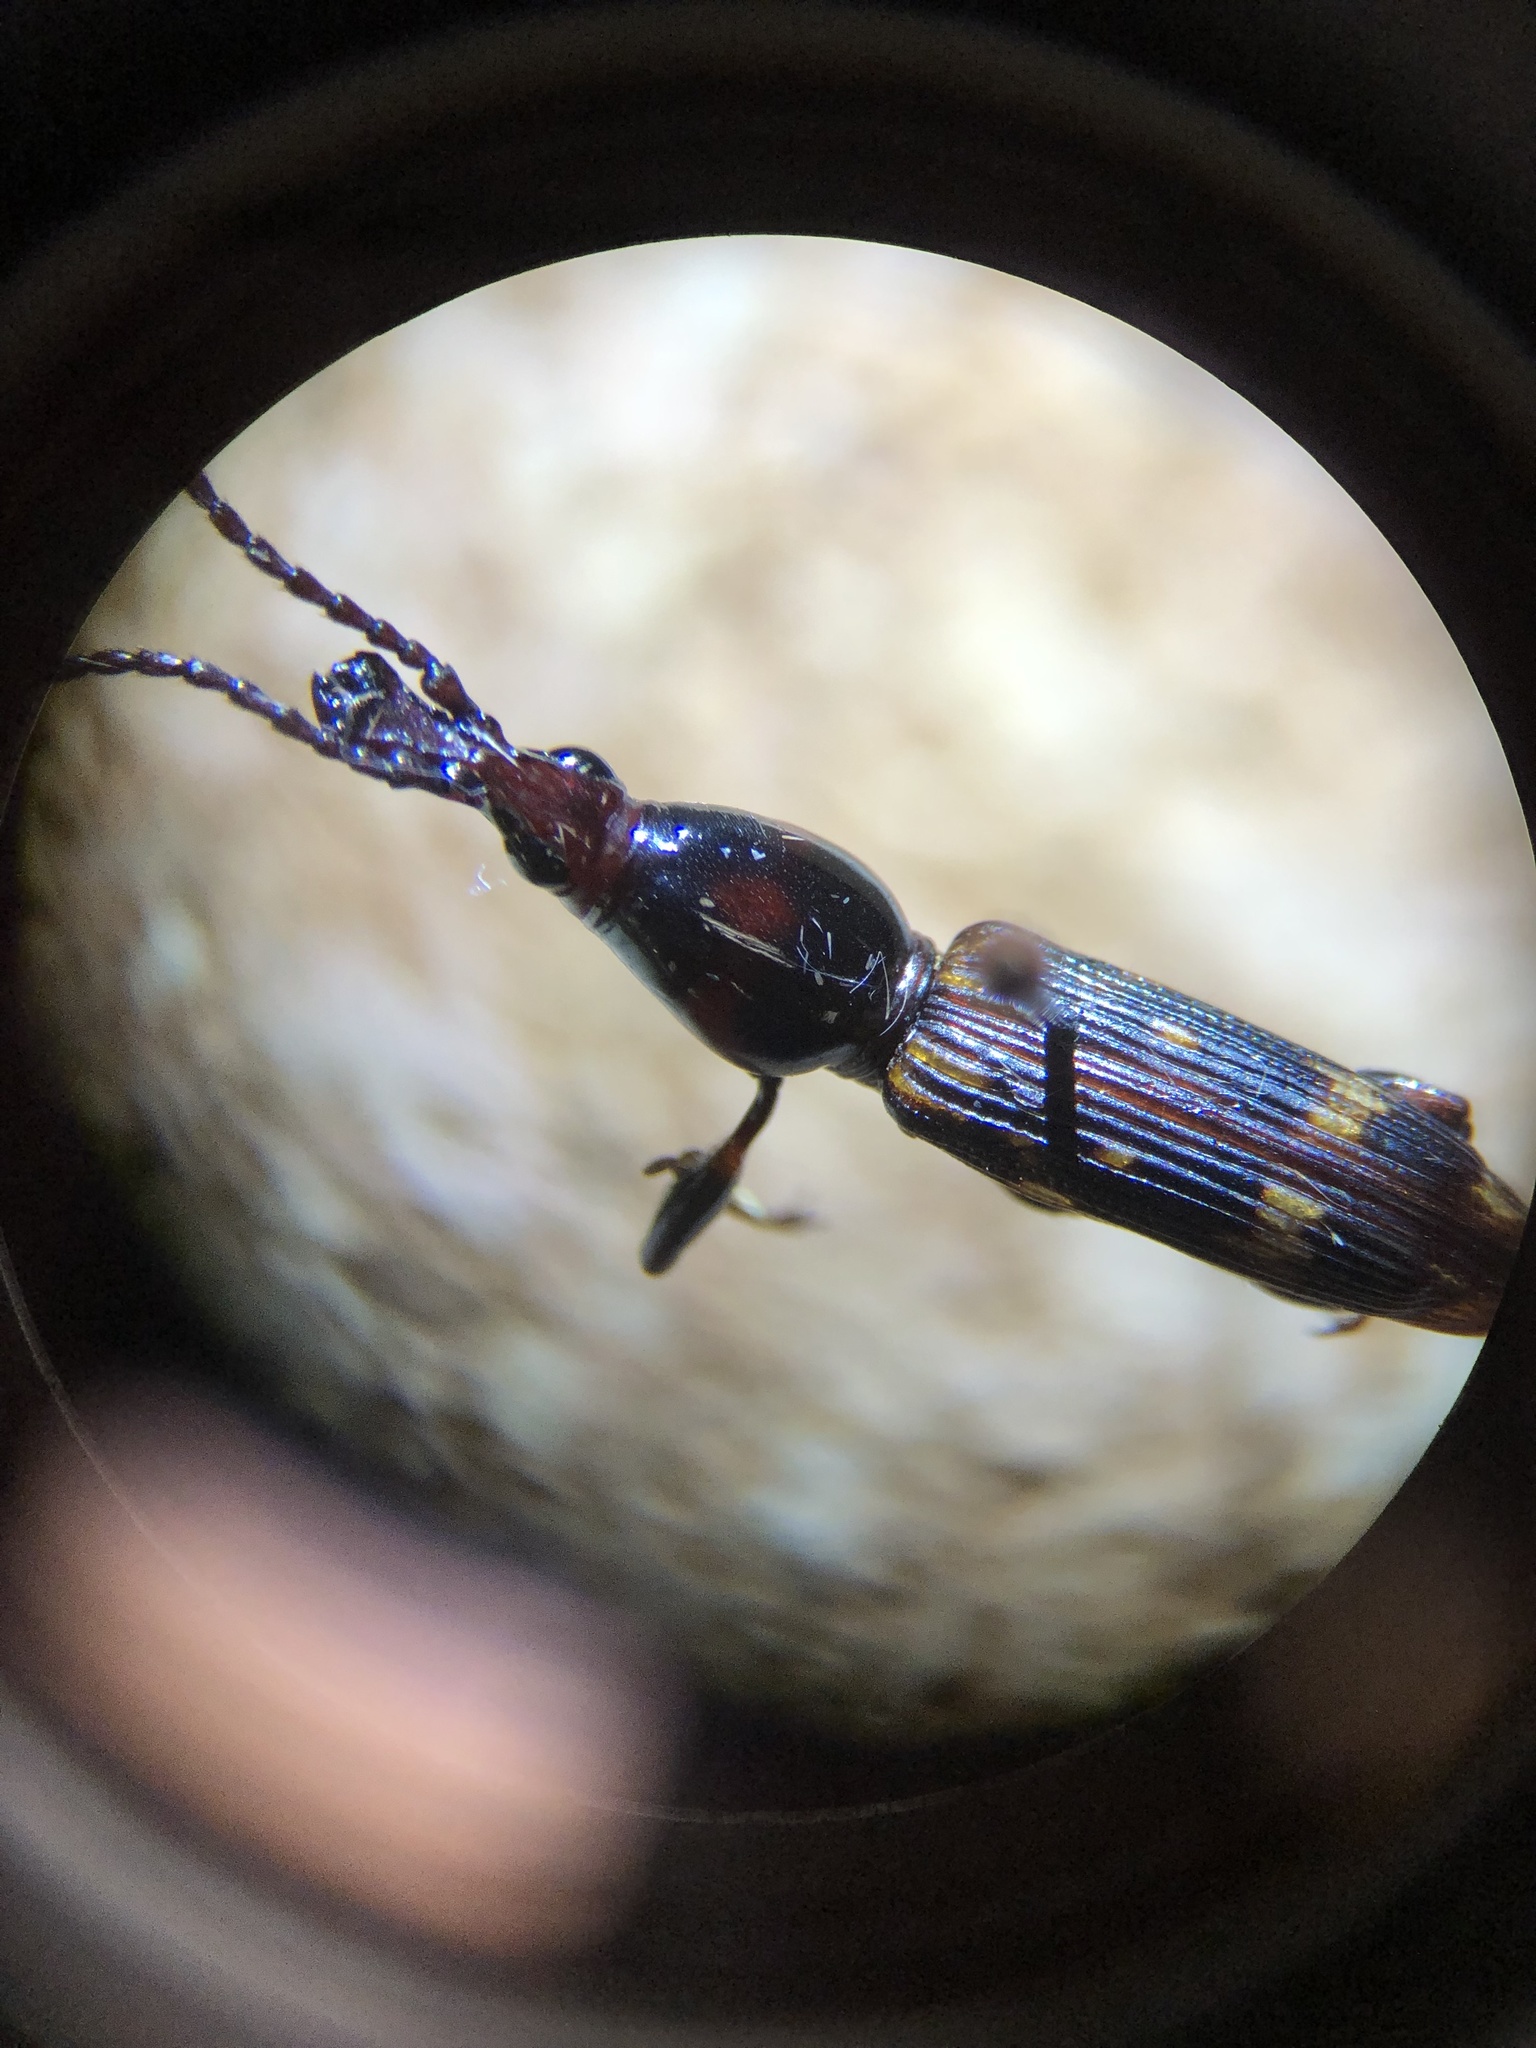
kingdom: Animalia
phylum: Arthropoda
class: Insecta
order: Coleoptera
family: Brentidae
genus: Arrenodes
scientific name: Arrenodes minutus
